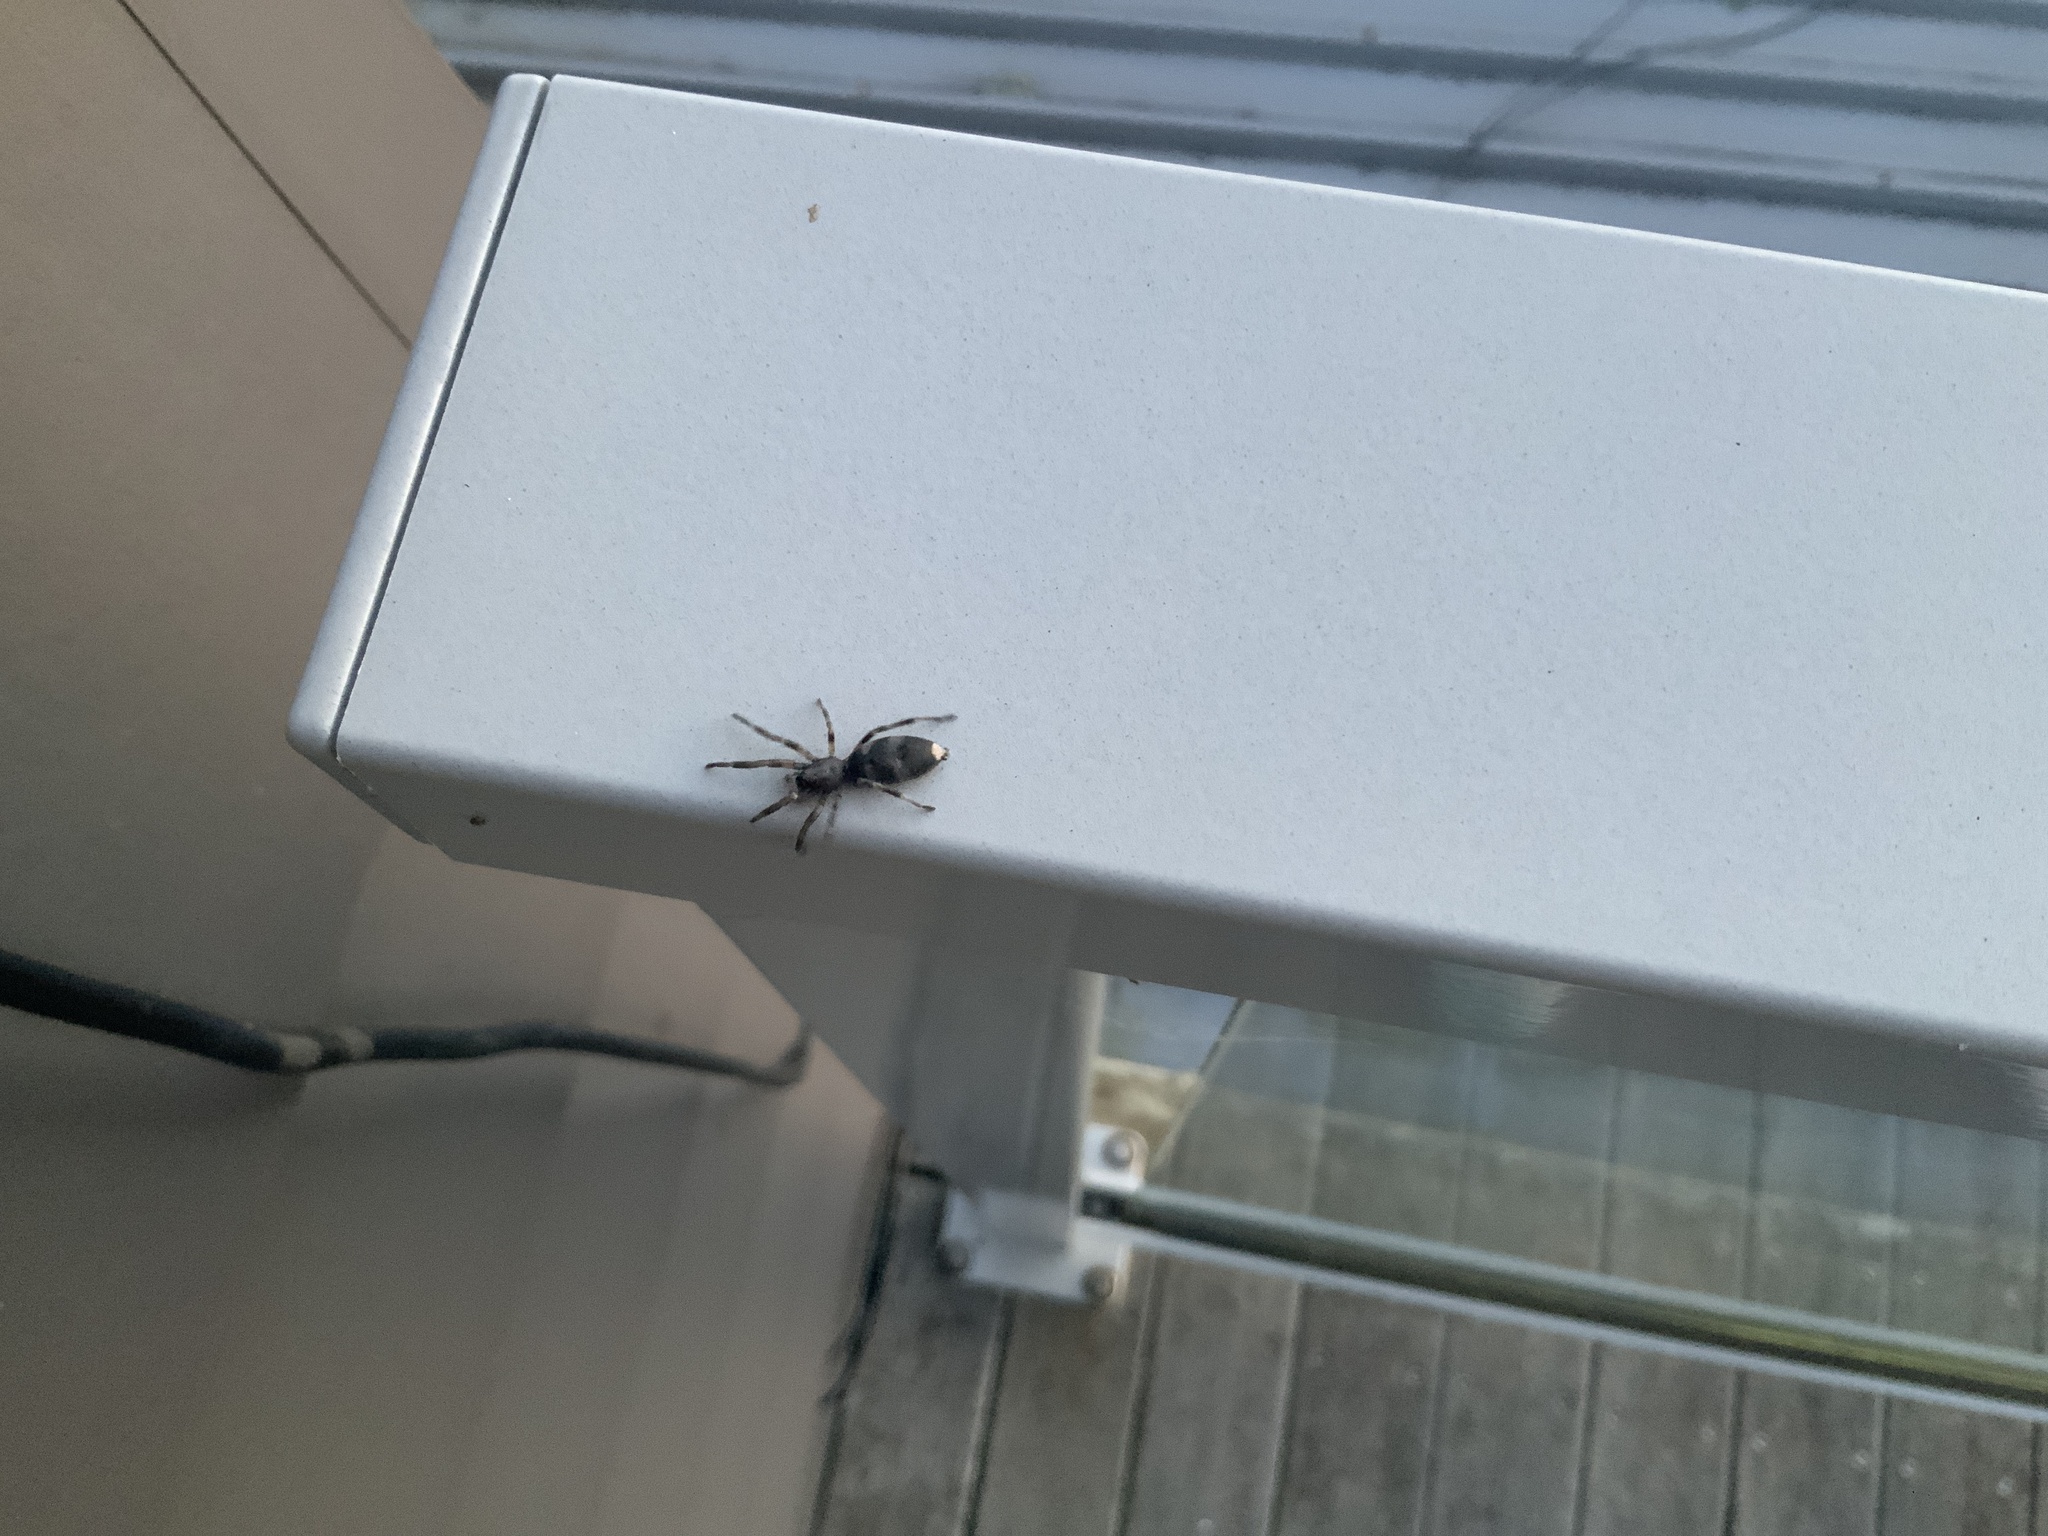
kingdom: Animalia
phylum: Arthropoda
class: Arachnida
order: Araneae
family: Lamponidae
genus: Lampona
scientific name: Lampona murina
